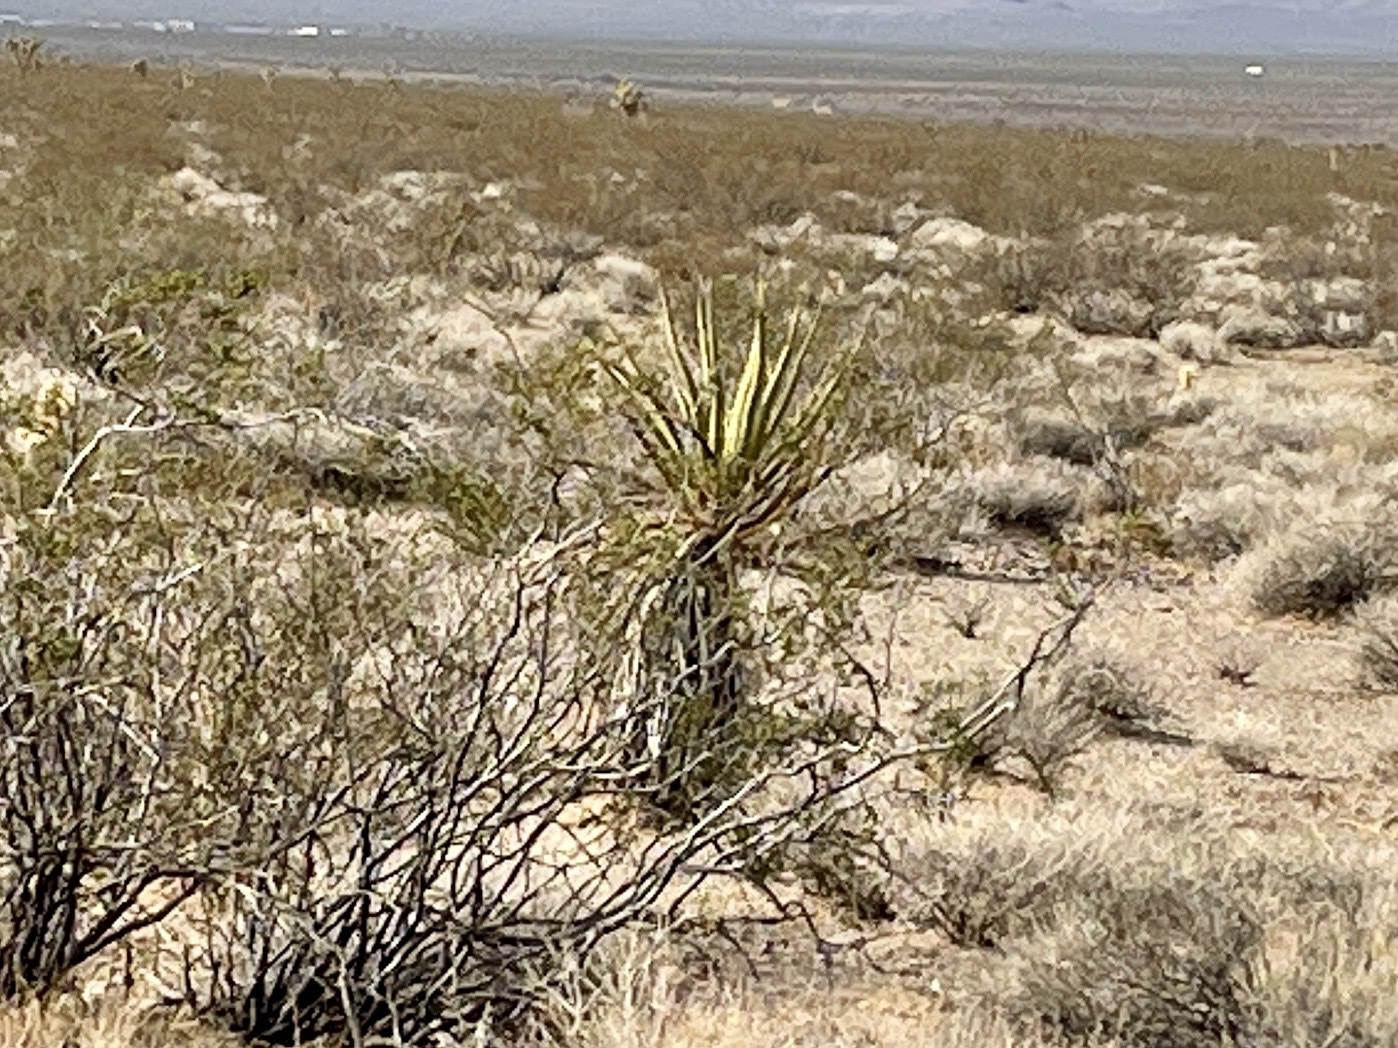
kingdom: Plantae
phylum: Tracheophyta
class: Liliopsida
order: Asparagales
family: Asparagaceae
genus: Yucca
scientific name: Yucca schidigera
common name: Mojave yucca
